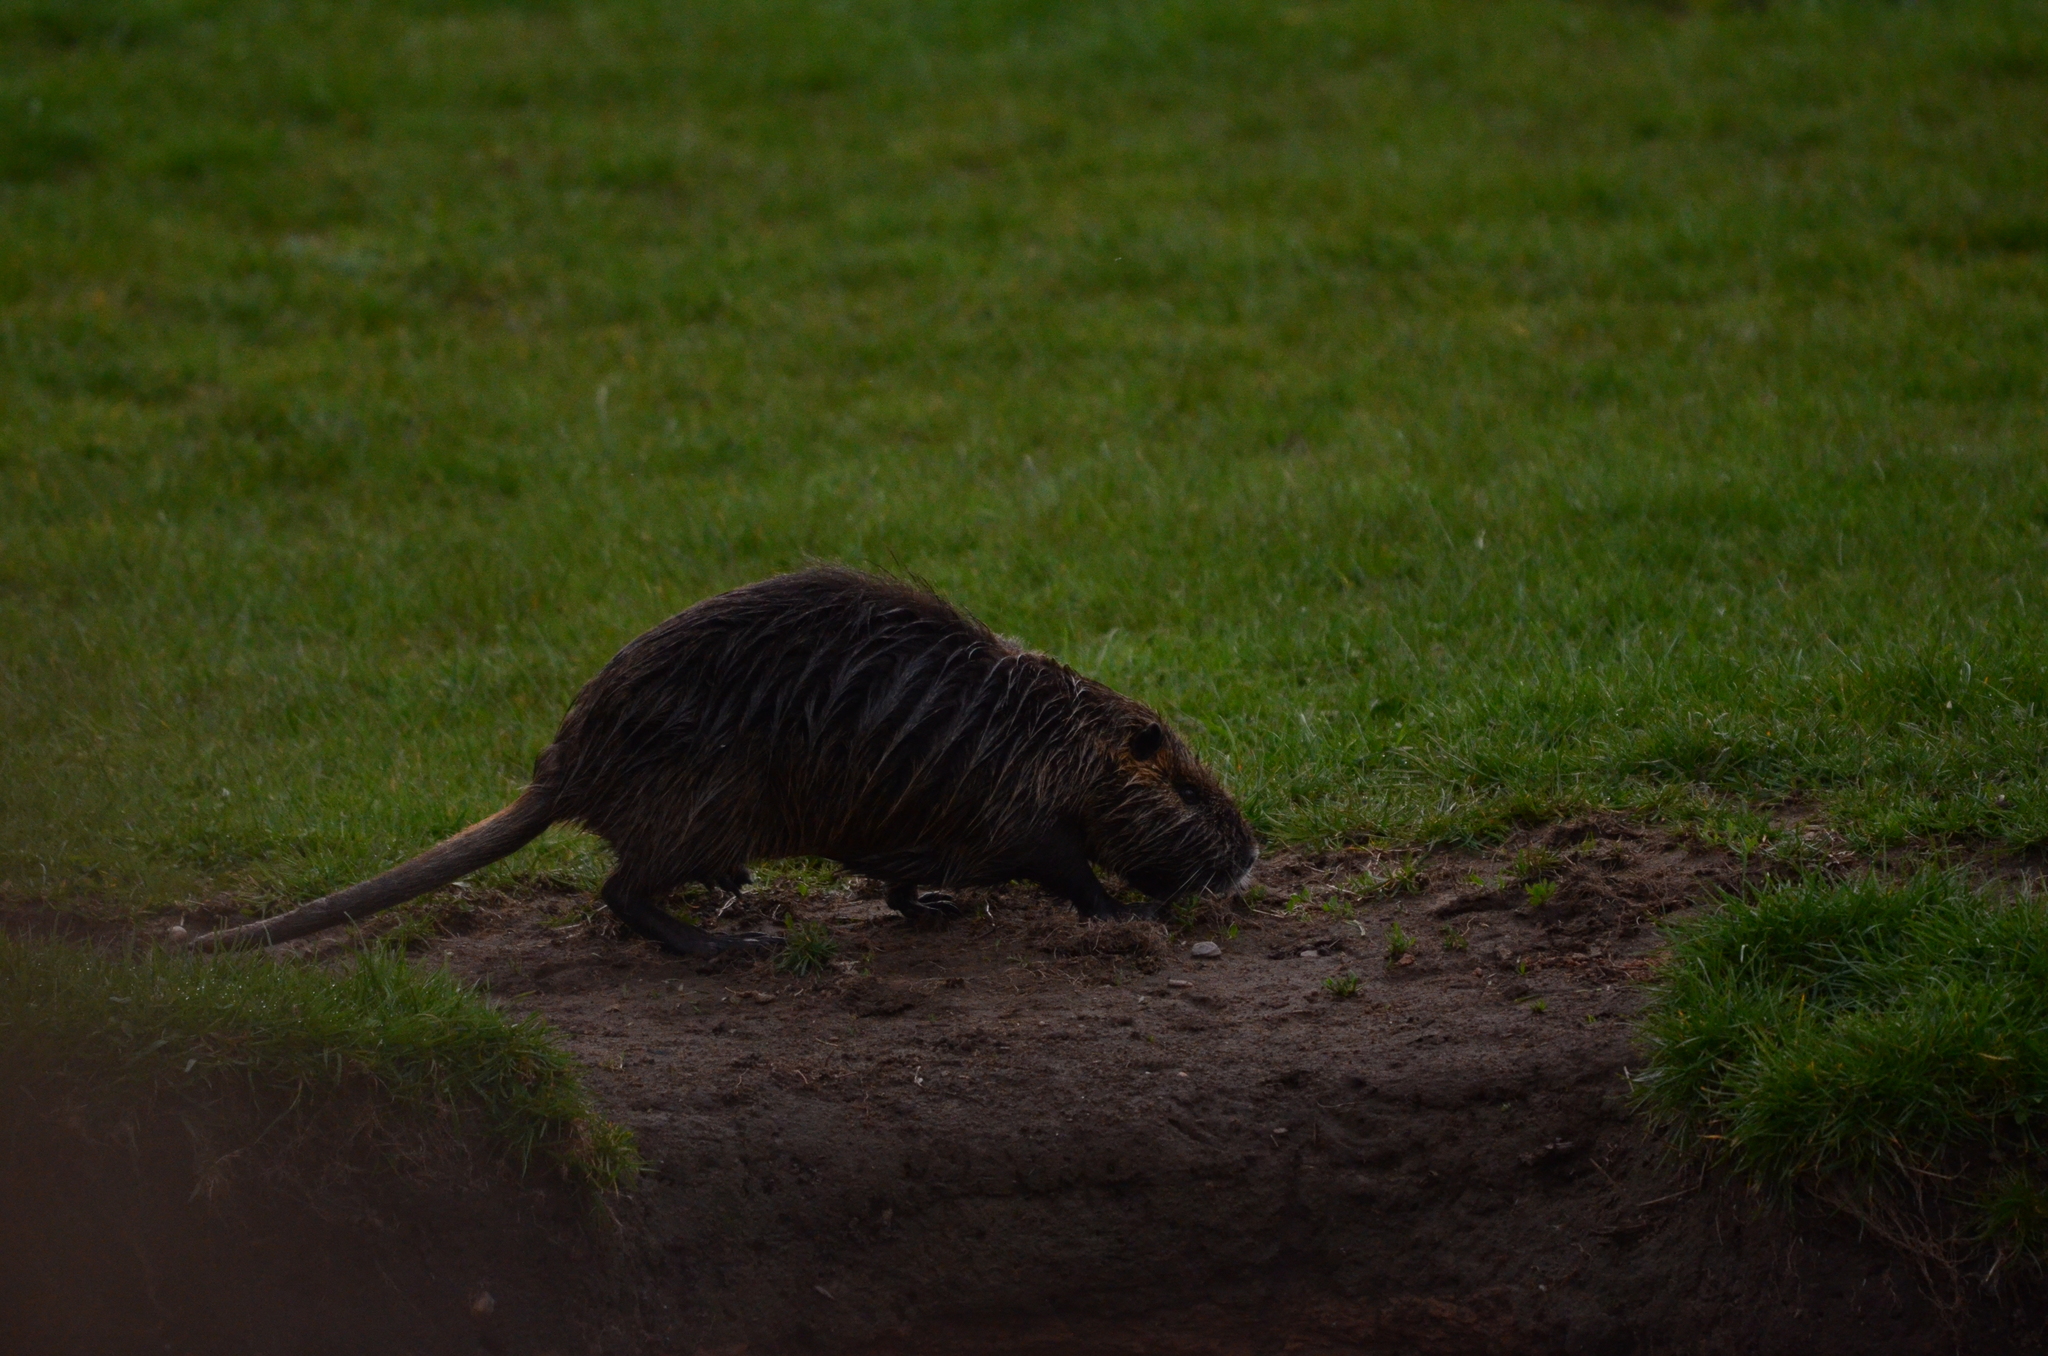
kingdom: Animalia
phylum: Chordata
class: Mammalia
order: Rodentia
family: Myocastoridae
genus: Myocastor
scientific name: Myocastor coypus
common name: Coypu
